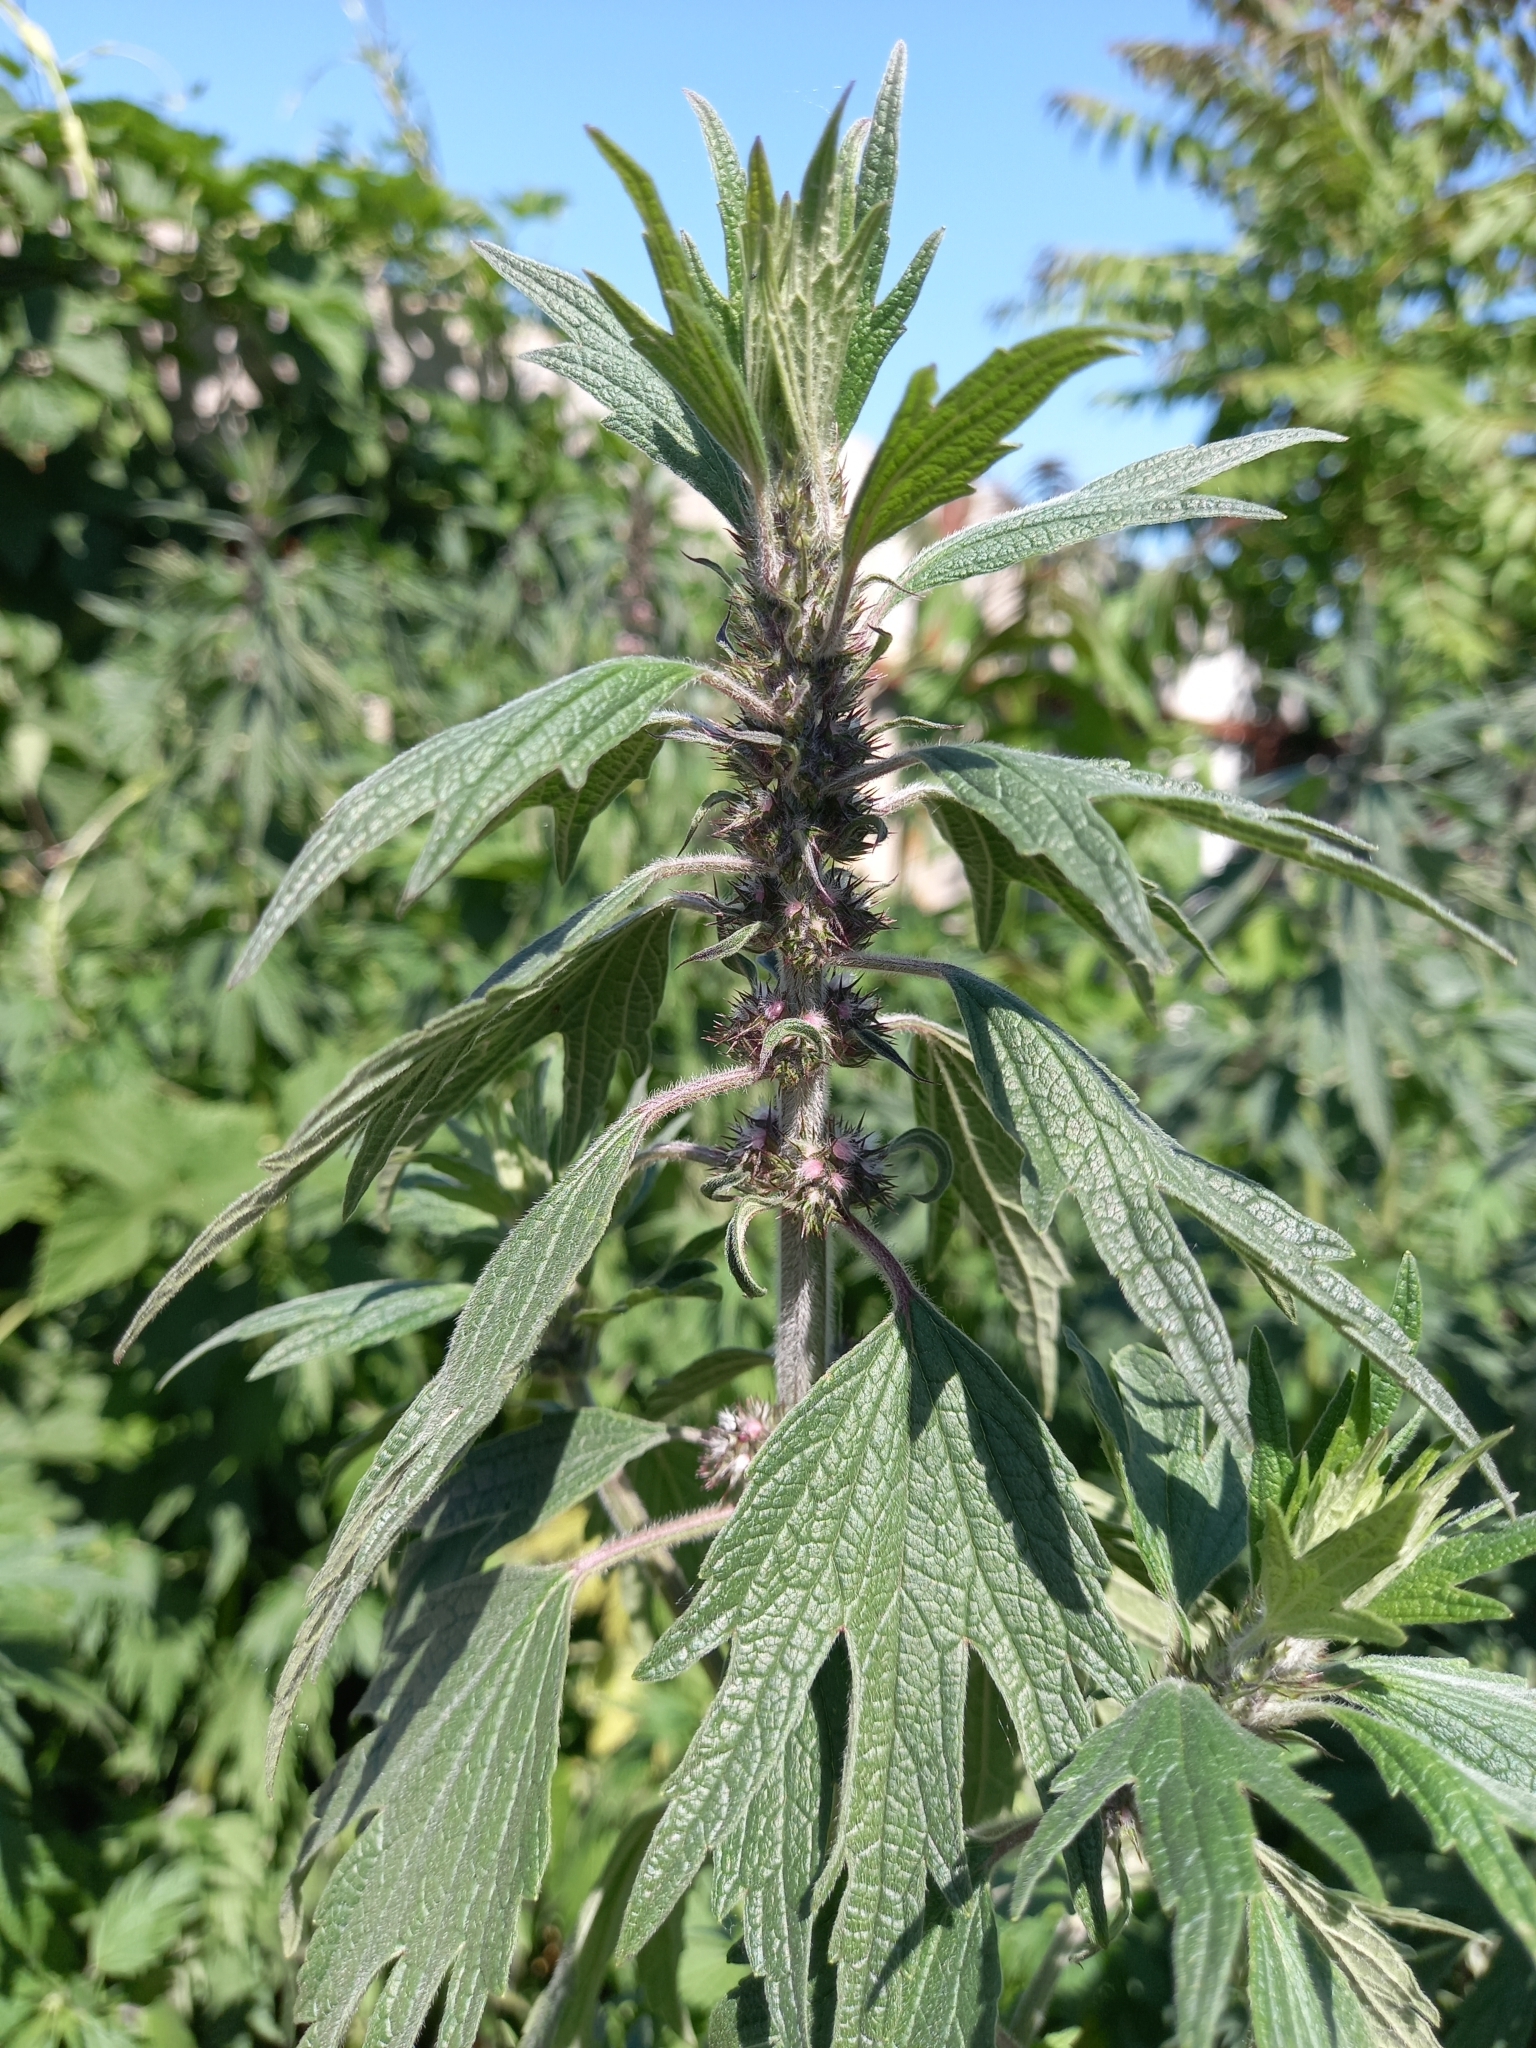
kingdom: Plantae
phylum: Tracheophyta
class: Magnoliopsida
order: Lamiales
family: Lamiaceae
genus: Leonurus
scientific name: Leonurus quinquelobatus
